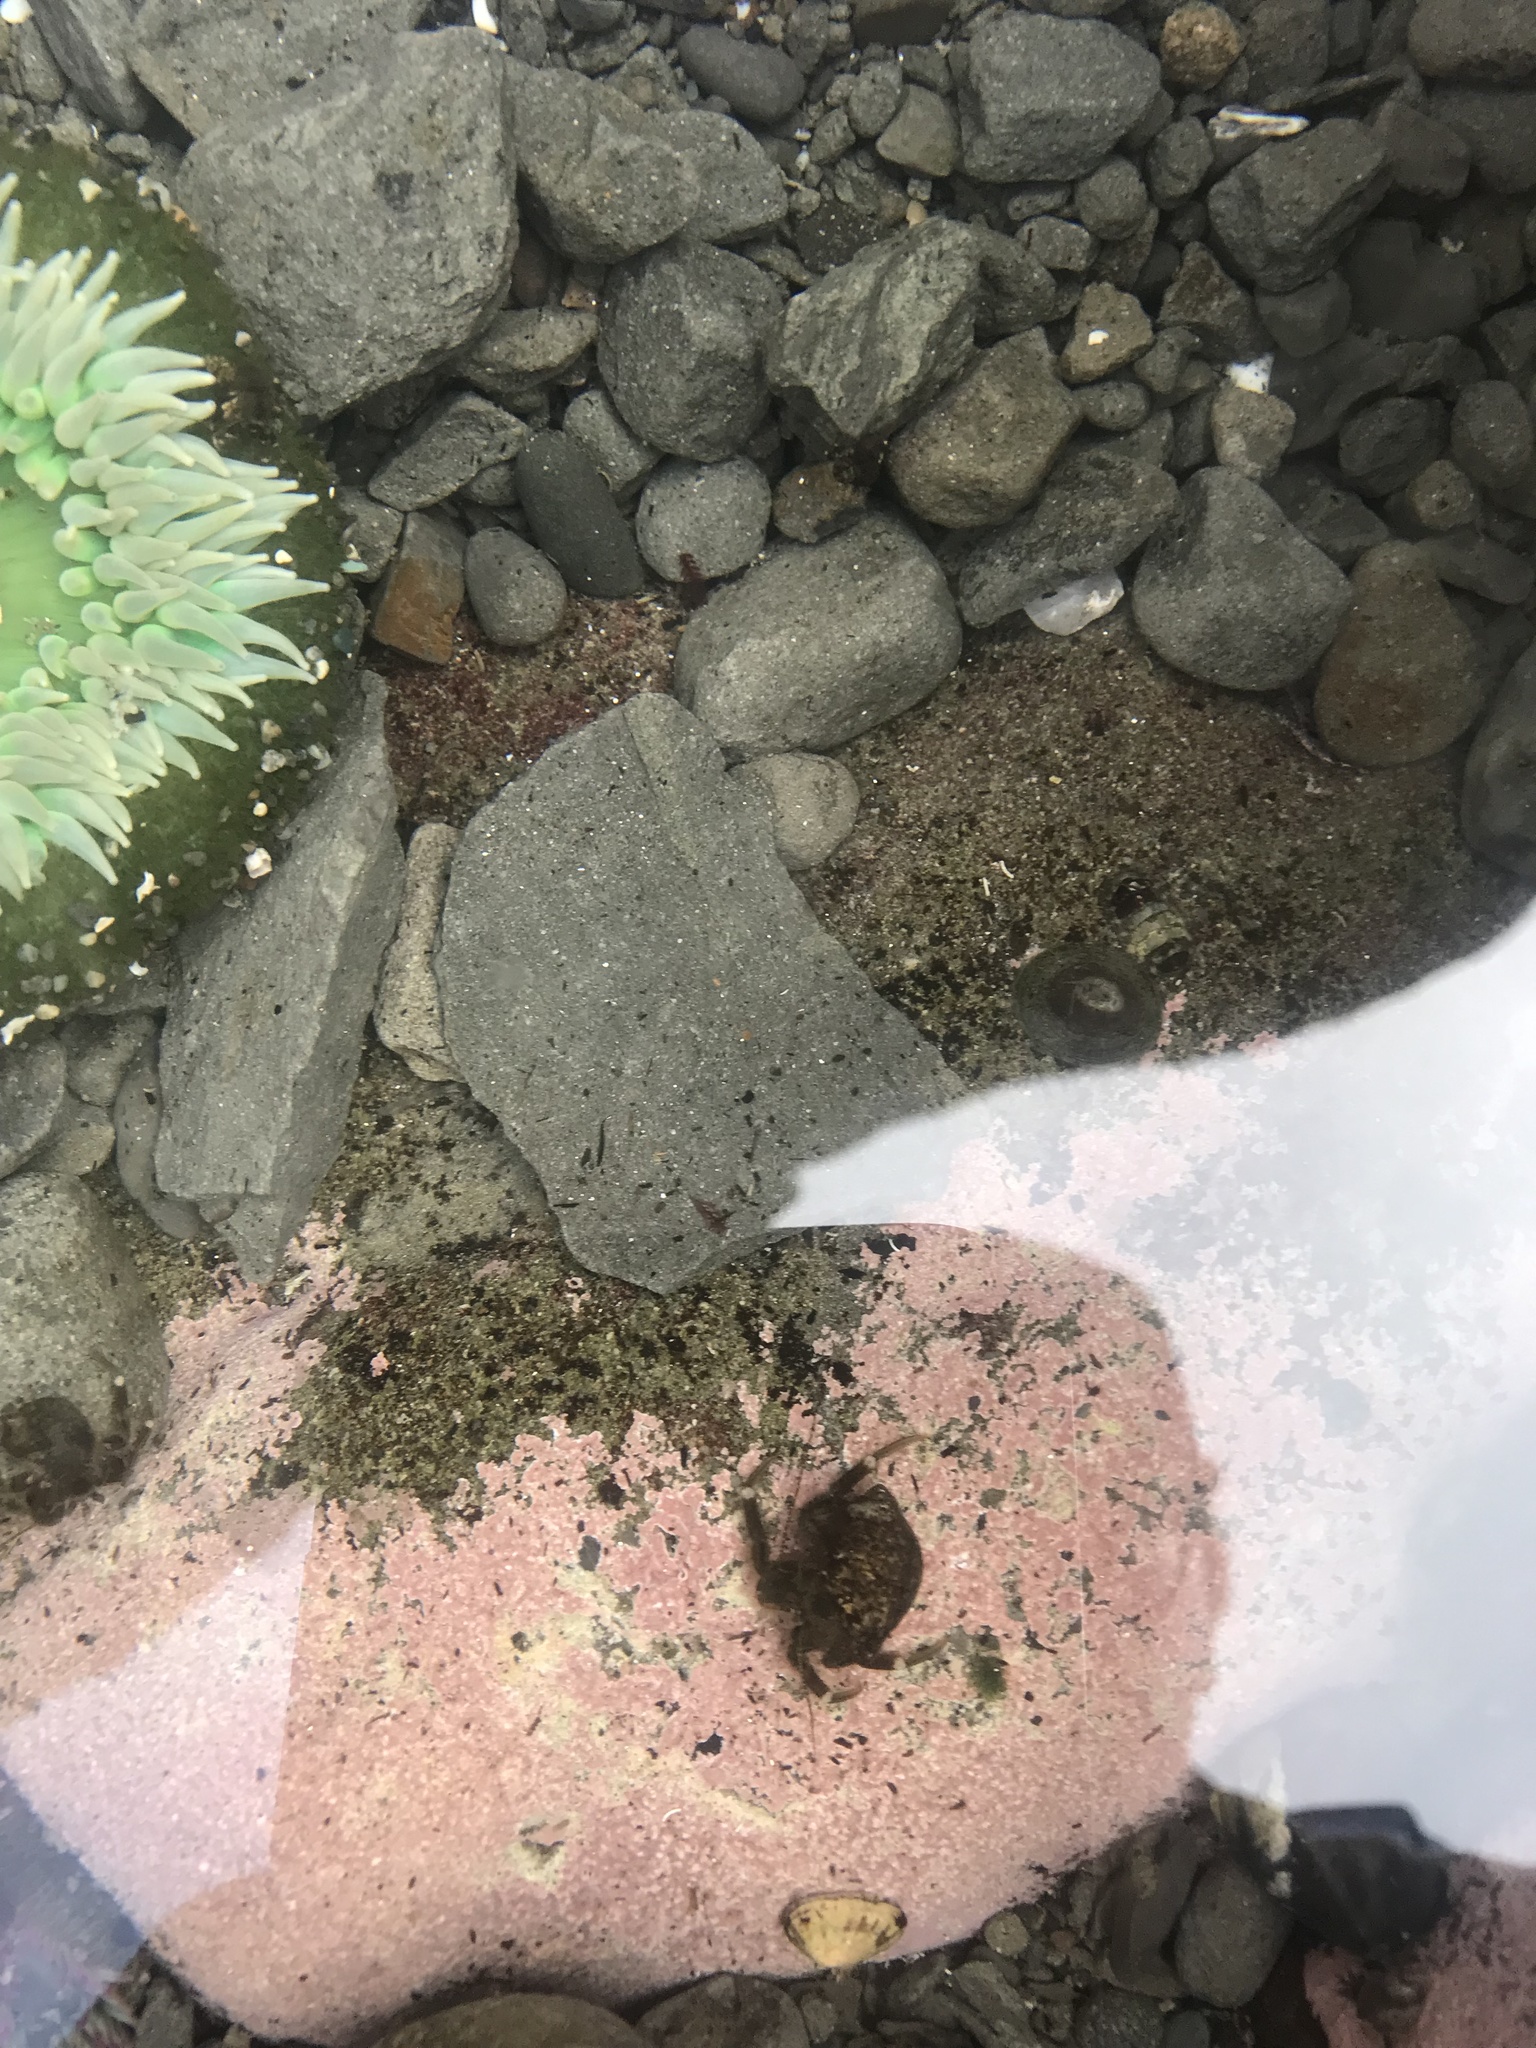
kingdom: Animalia
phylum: Arthropoda
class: Malacostraca
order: Decapoda
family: Paguridae
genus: Pagurus
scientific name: Pagurus hirsutiusculus
